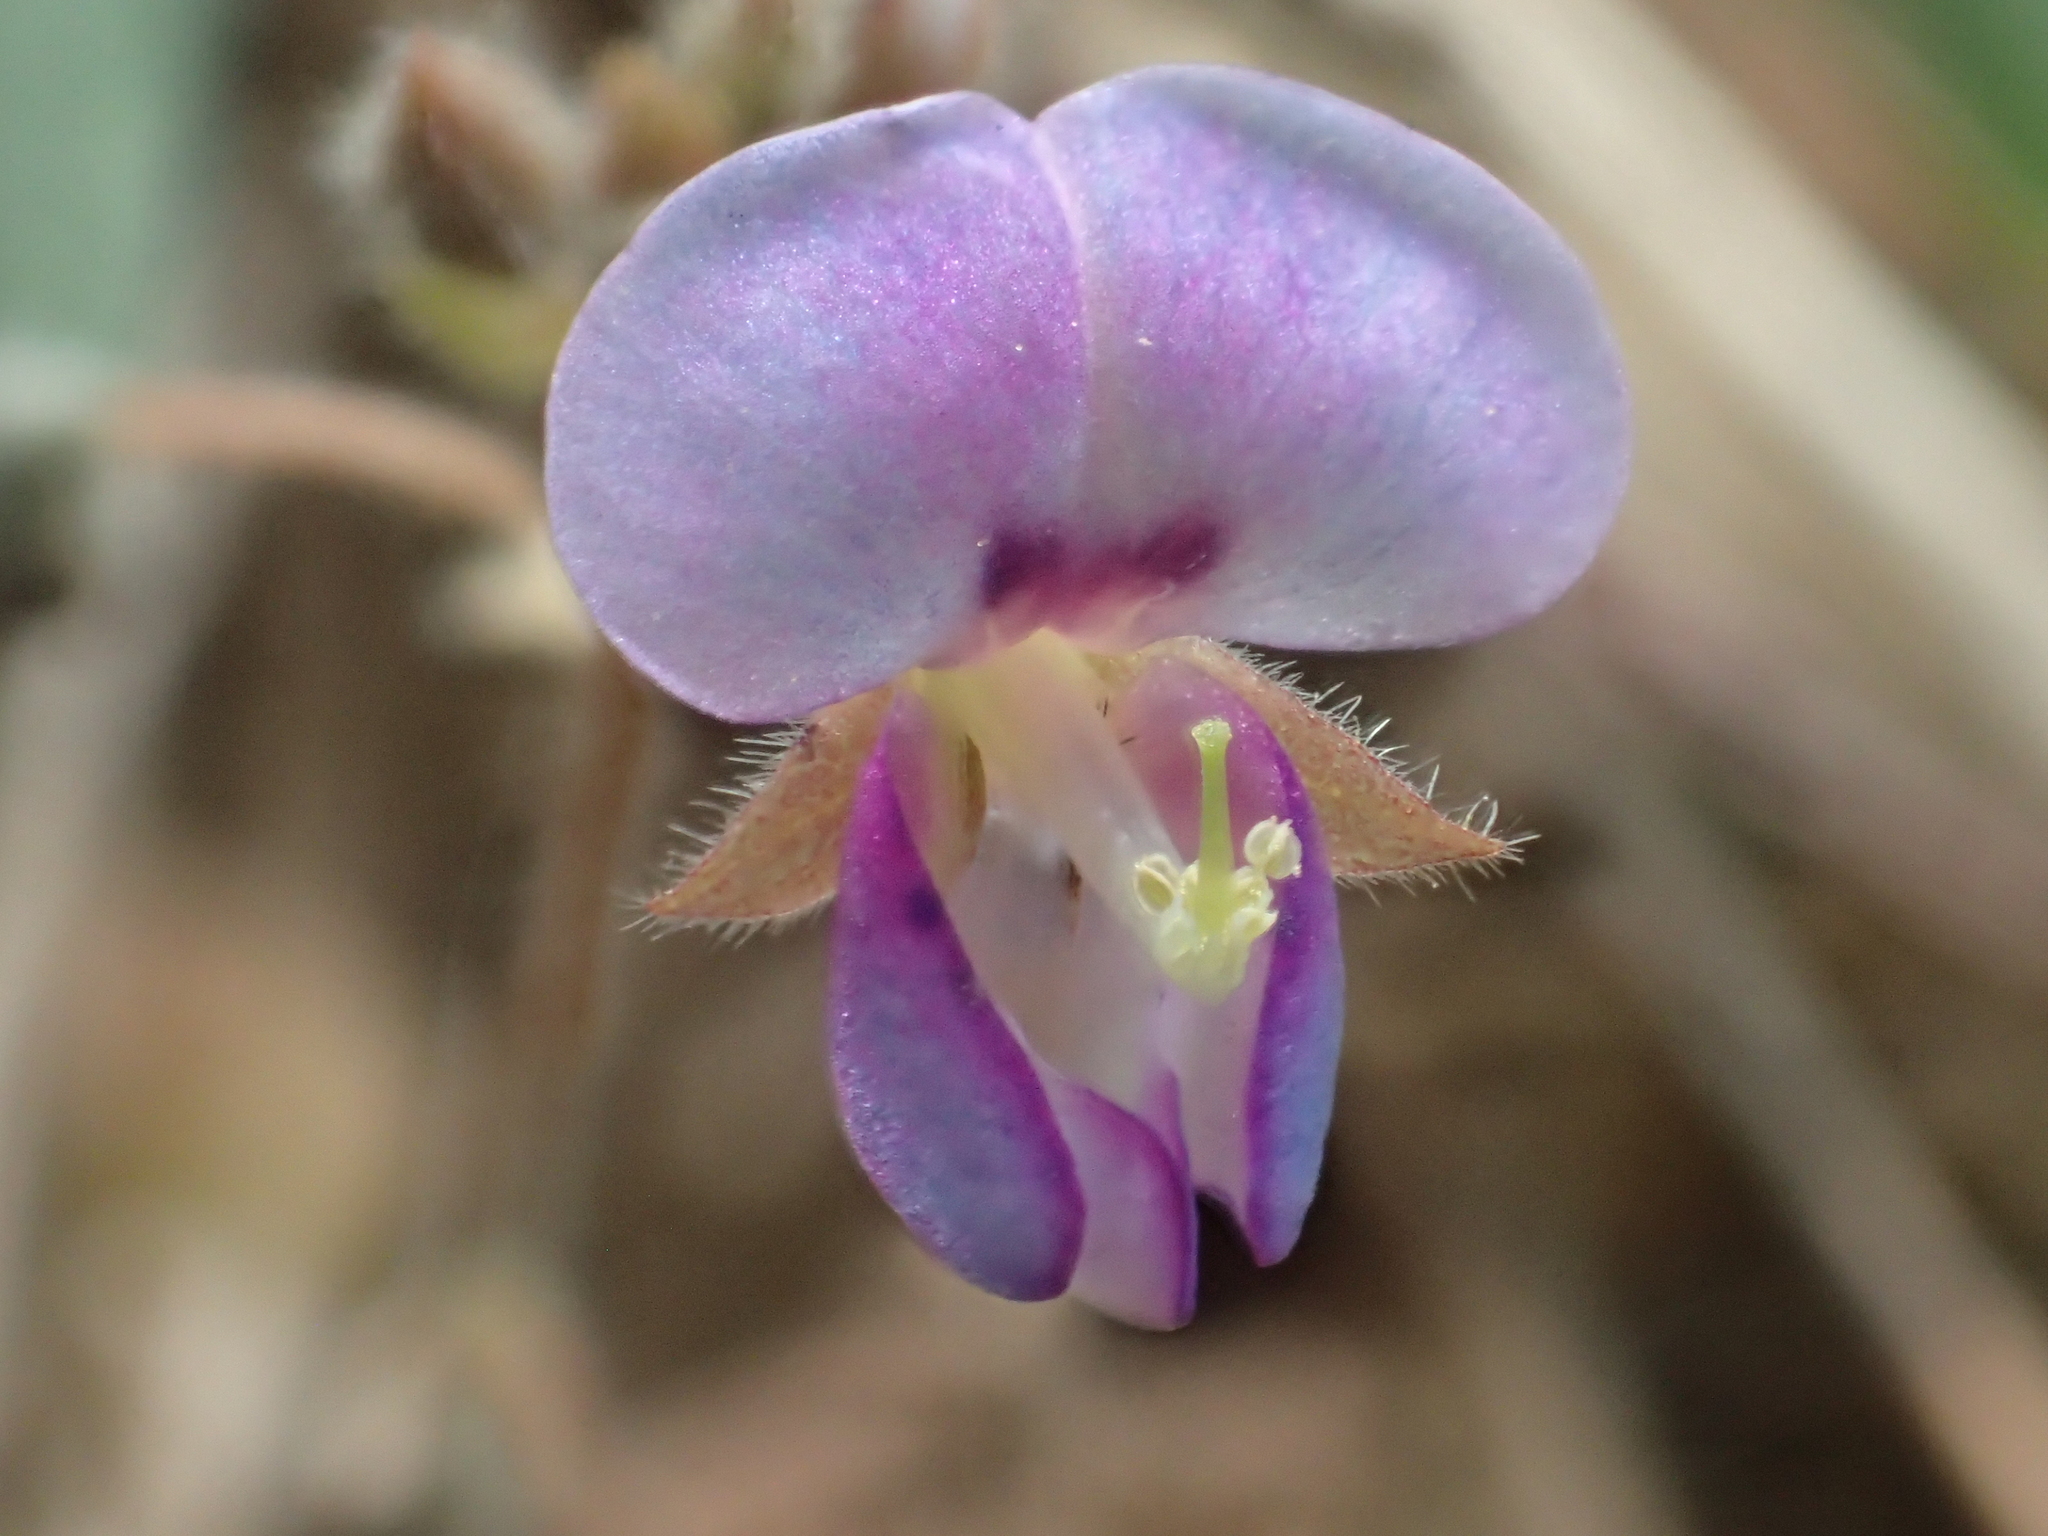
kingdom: Plantae
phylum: Tracheophyta
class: Magnoliopsida
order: Fabales
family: Fabaceae
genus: Grona
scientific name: Grona triflora
